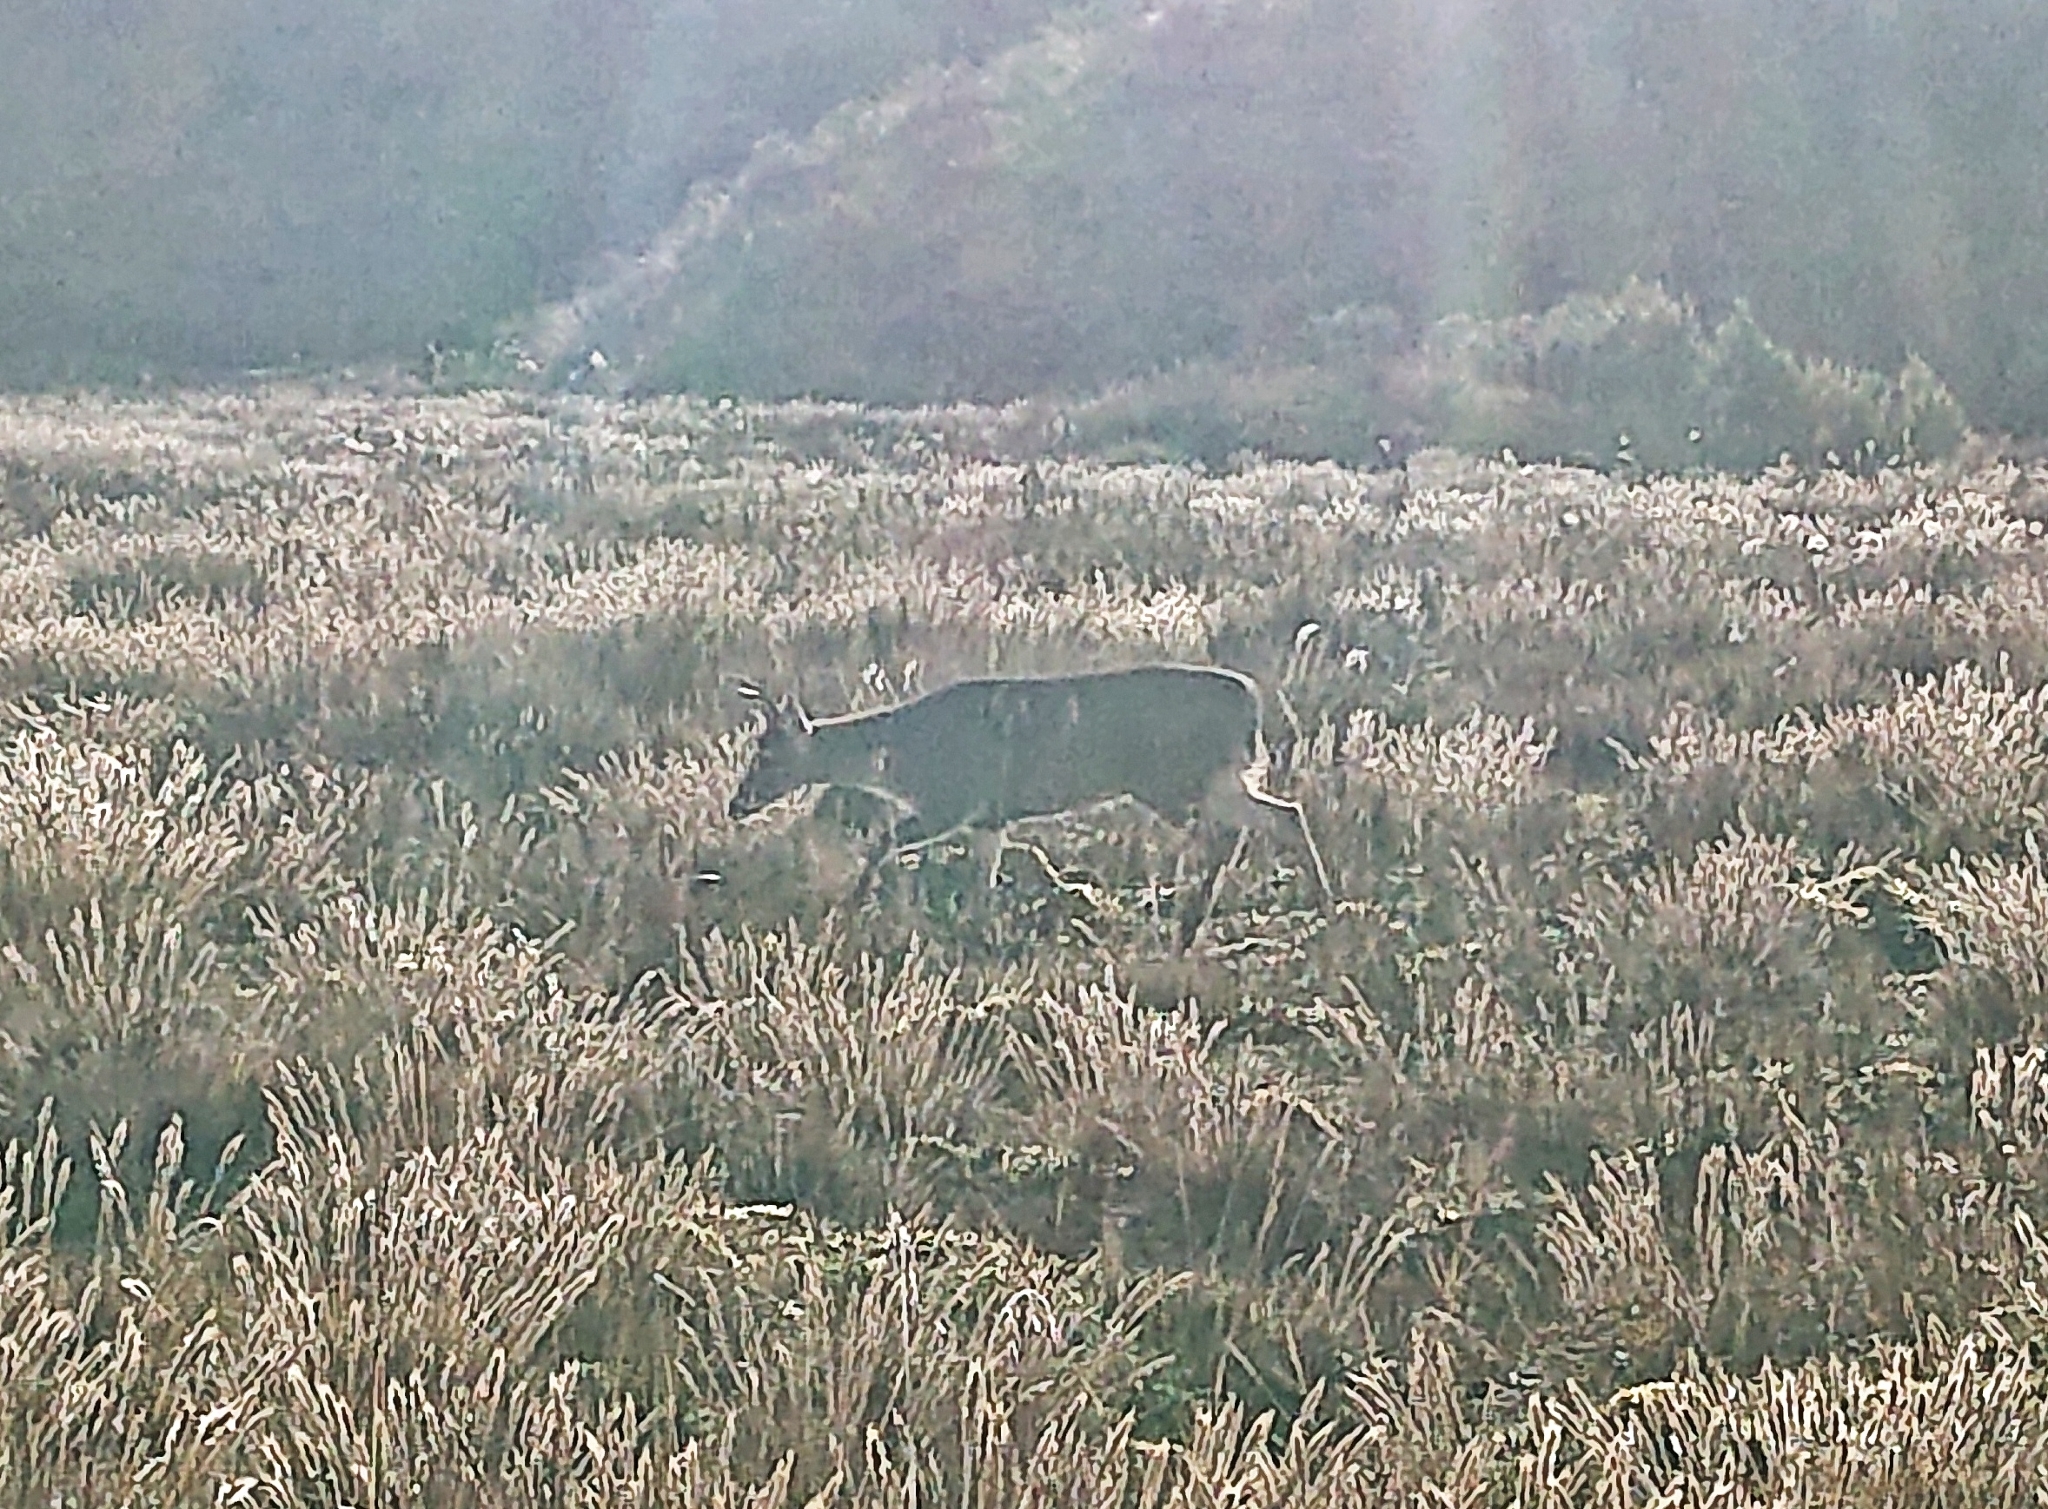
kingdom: Animalia
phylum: Chordata
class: Mammalia
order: Artiodactyla
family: Cervidae
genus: Odocoileus
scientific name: Odocoileus virginianus
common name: White-tailed deer
